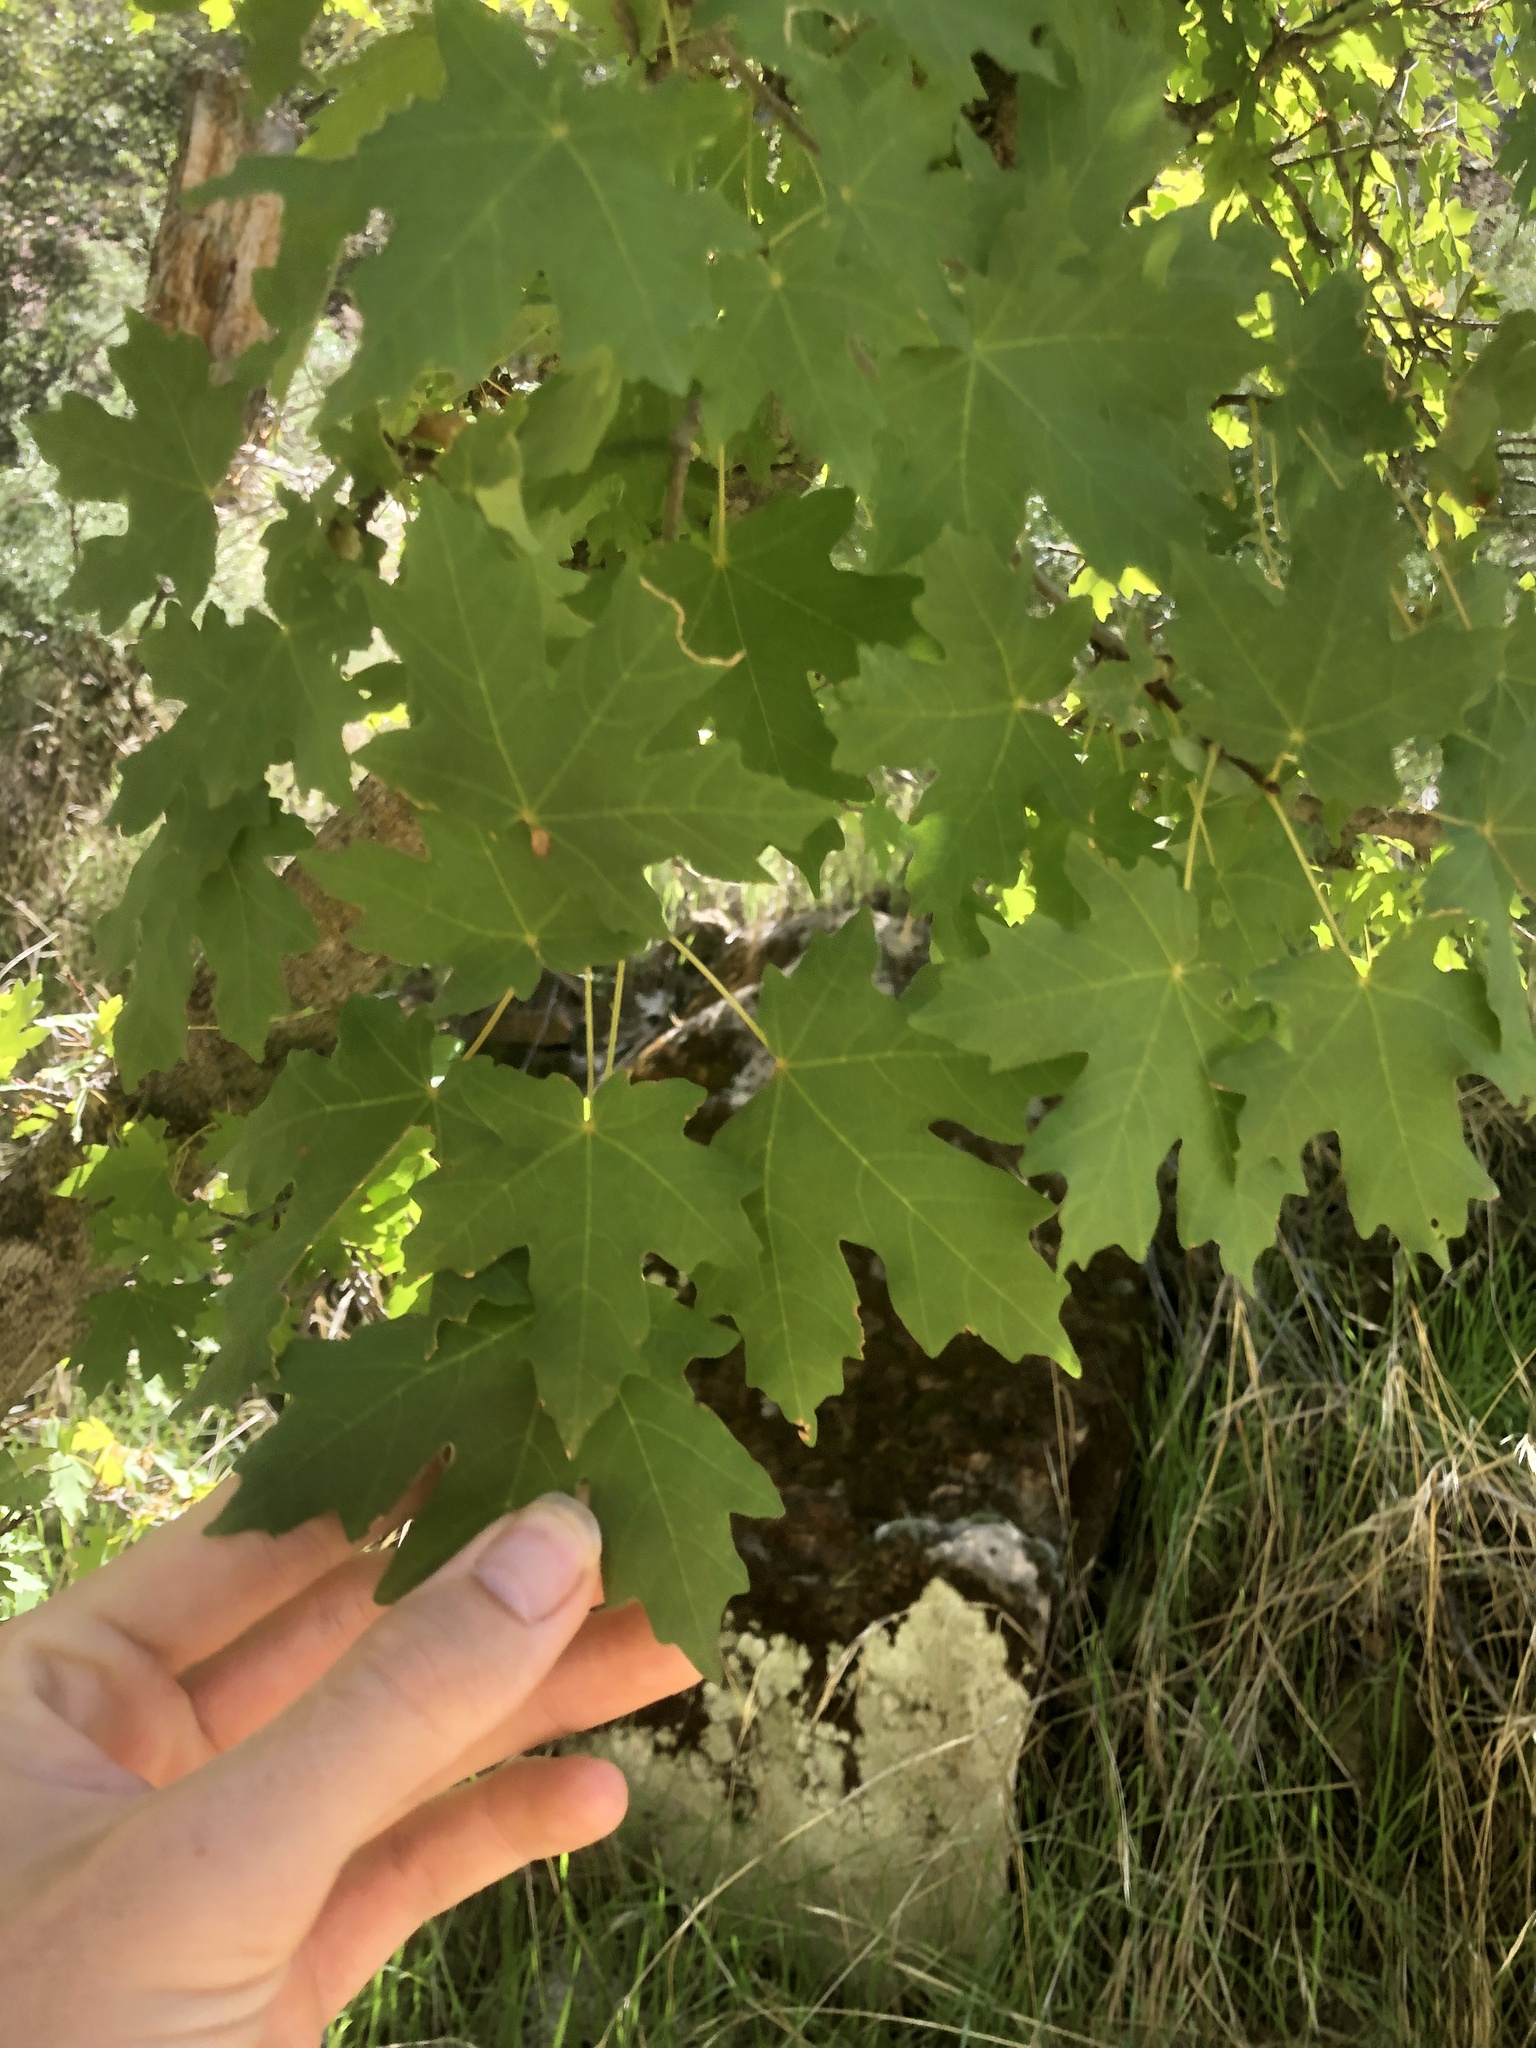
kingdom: Plantae
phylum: Tracheophyta
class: Magnoliopsida
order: Sapindales
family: Sapindaceae
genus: Acer
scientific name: Acer grandidentatum
